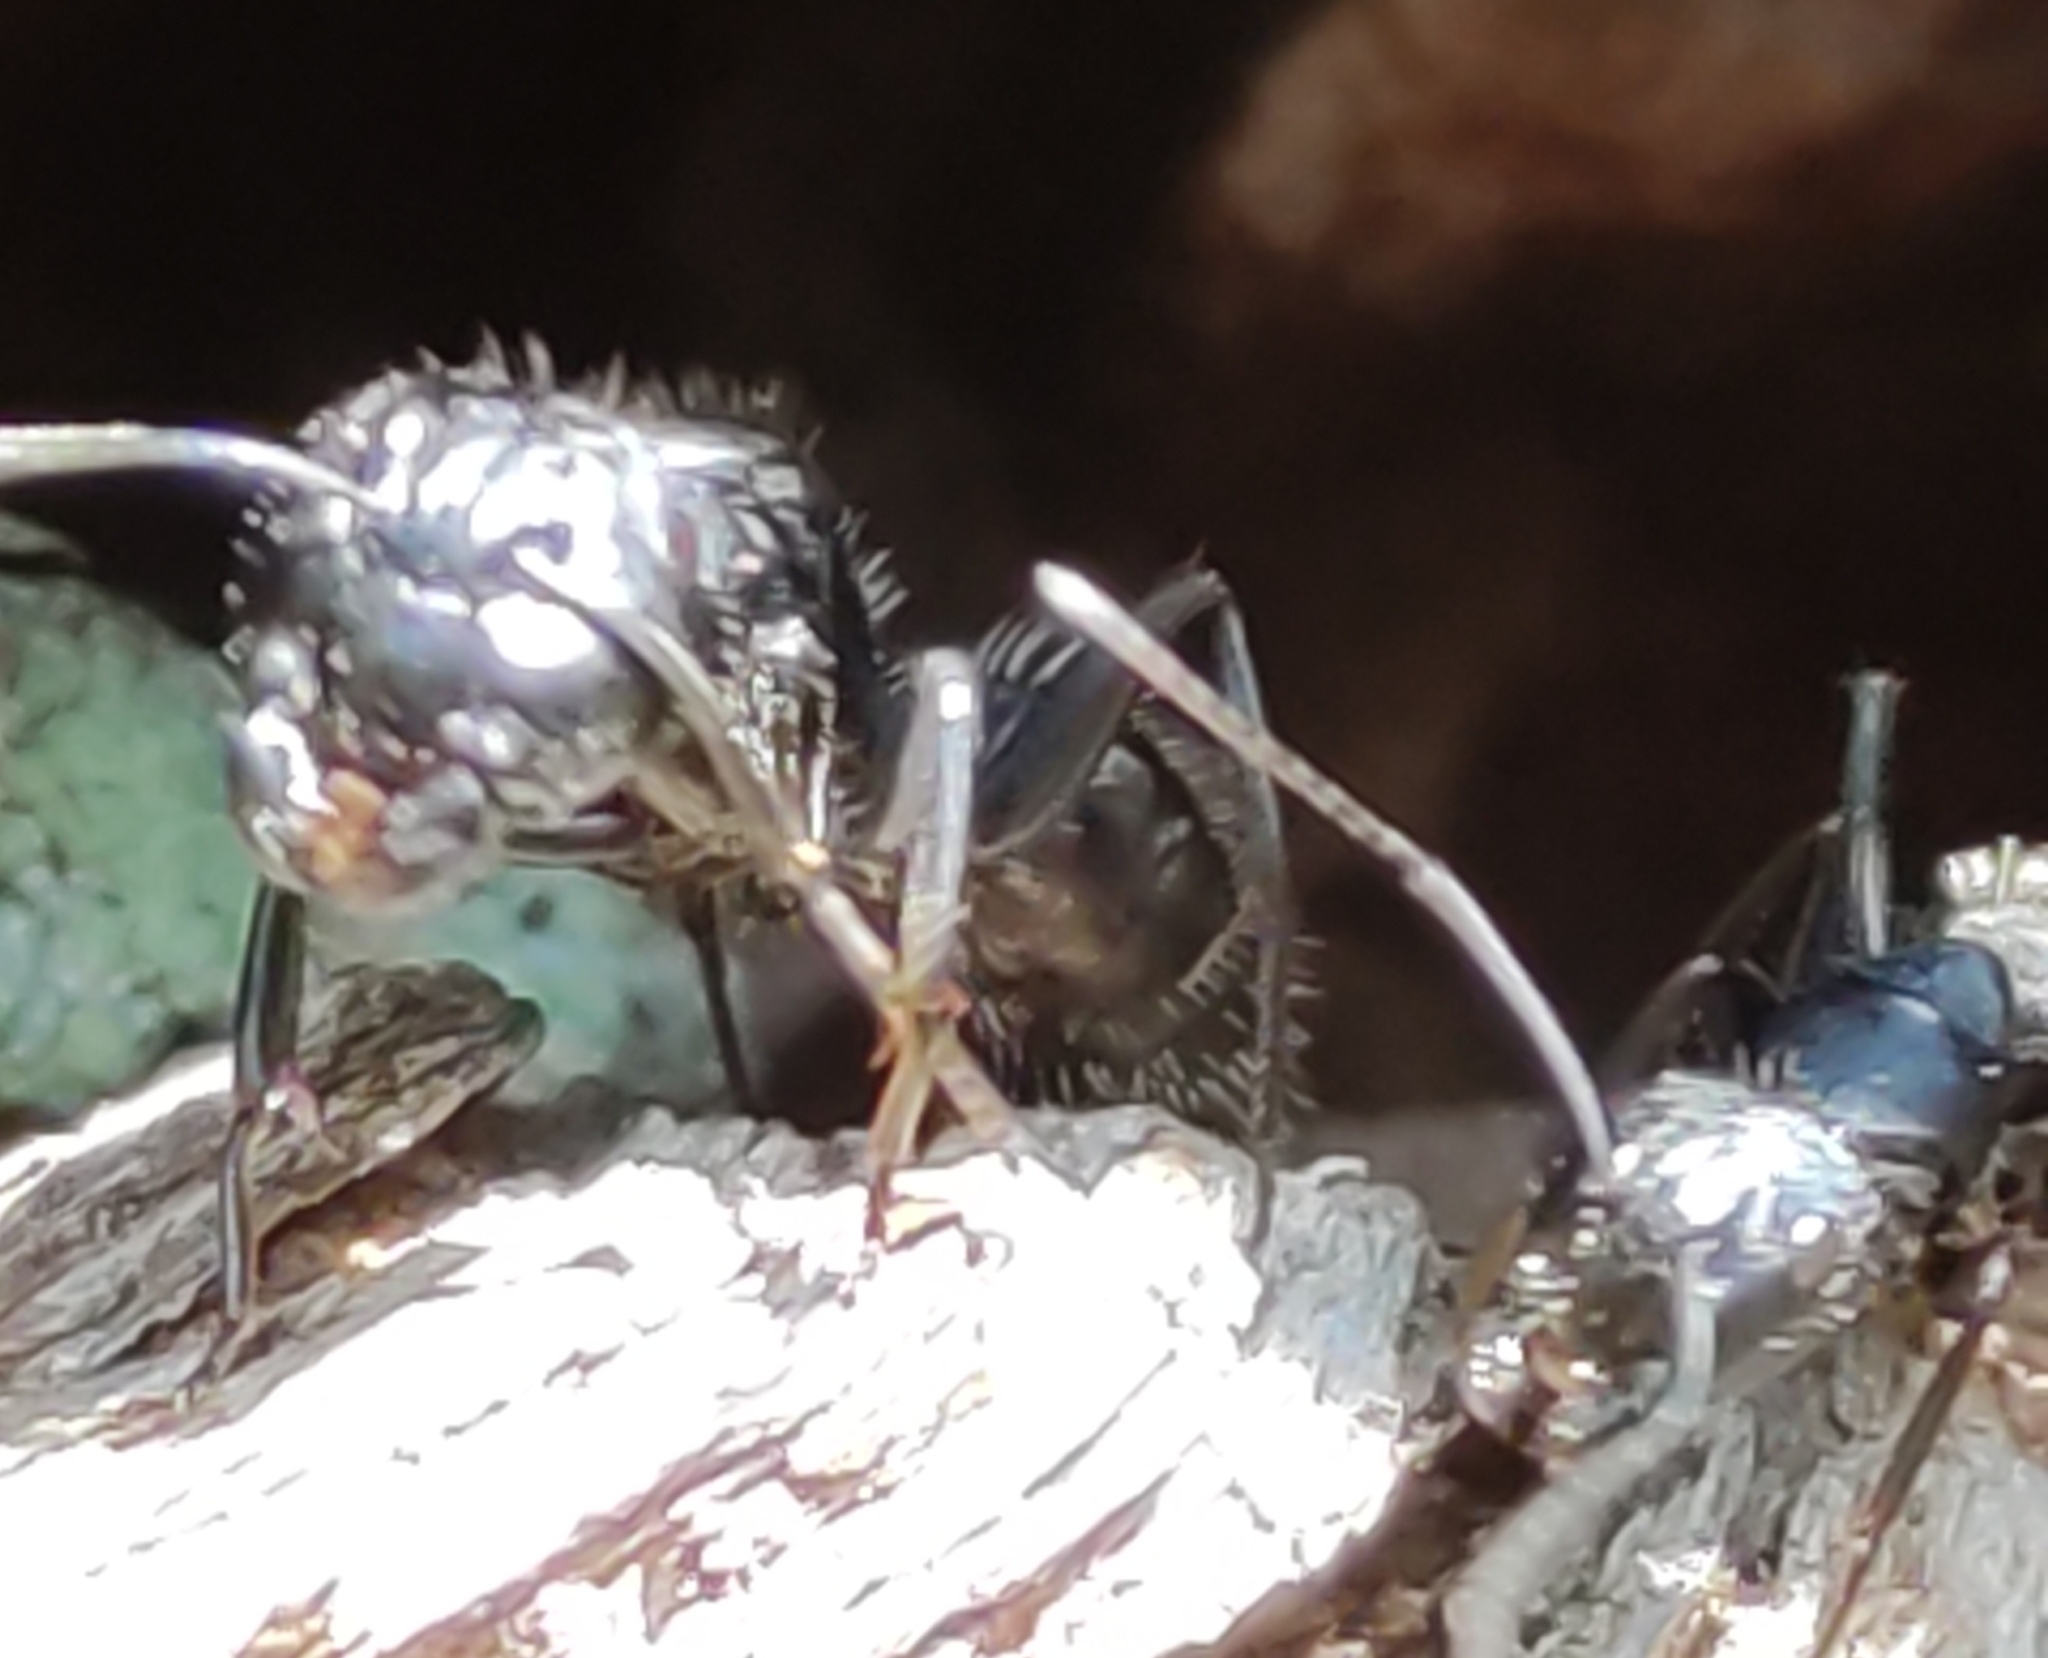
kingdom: Animalia
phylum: Arthropoda
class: Insecta
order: Hymenoptera
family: Formicidae
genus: Camponotus
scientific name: Camponotus vagus
